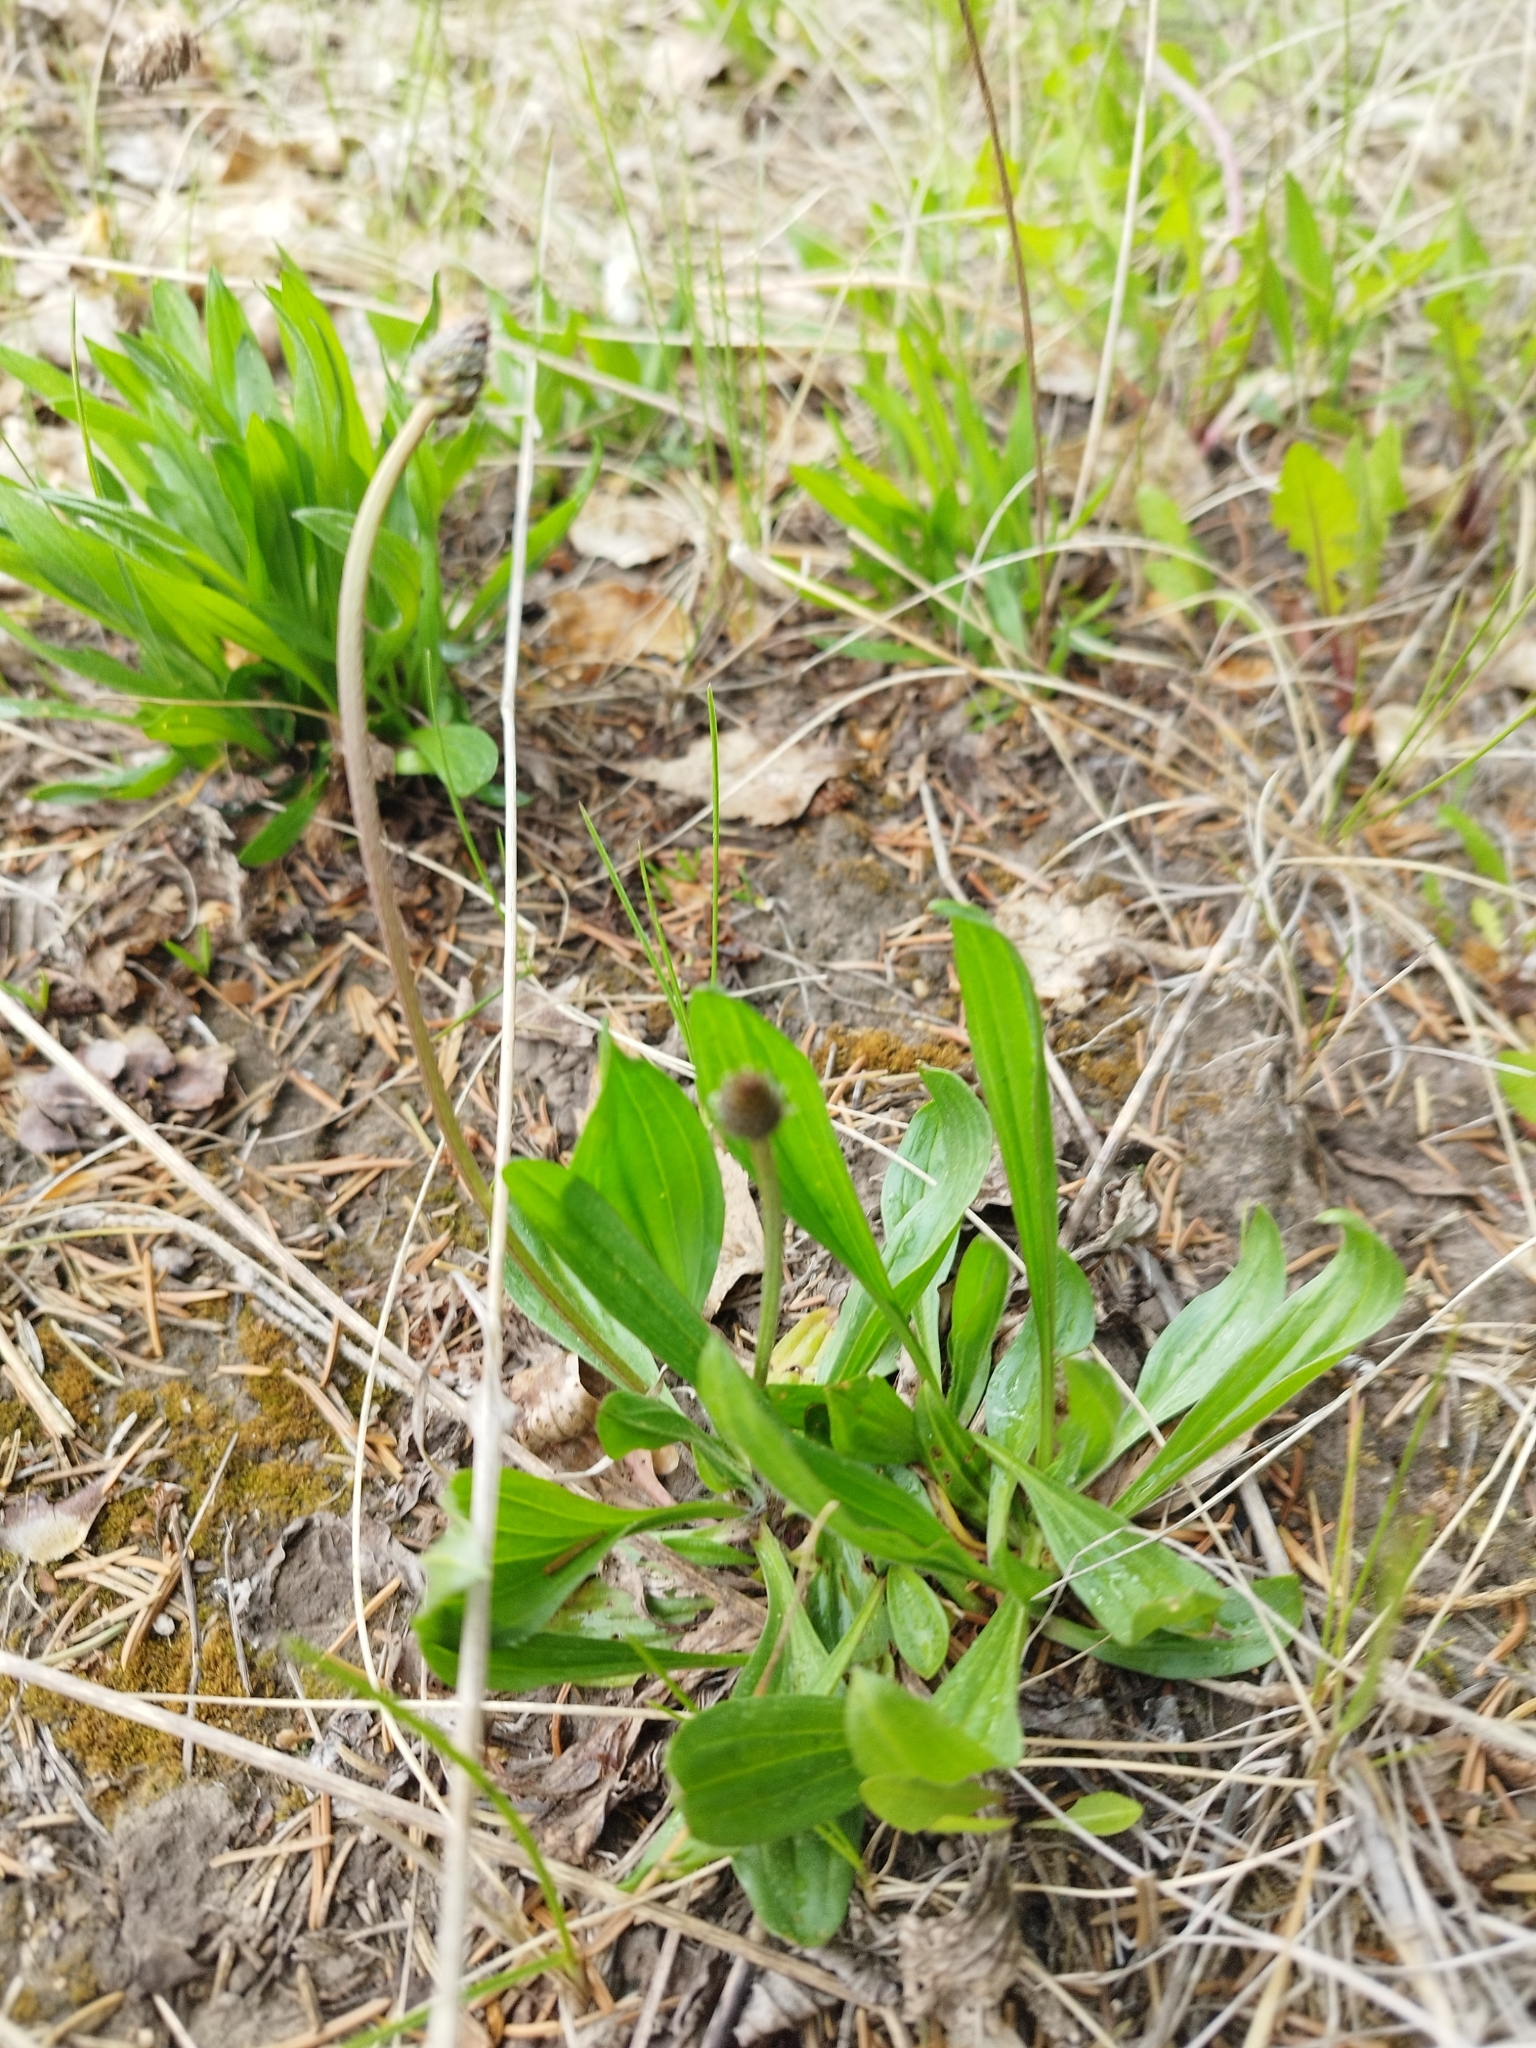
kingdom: Plantae
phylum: Tracheophyta
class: Magnoliopsida
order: Lamiales
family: Plantaginaceae
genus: Plantago
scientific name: Plantago lanceolata
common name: Ribwort plantain
